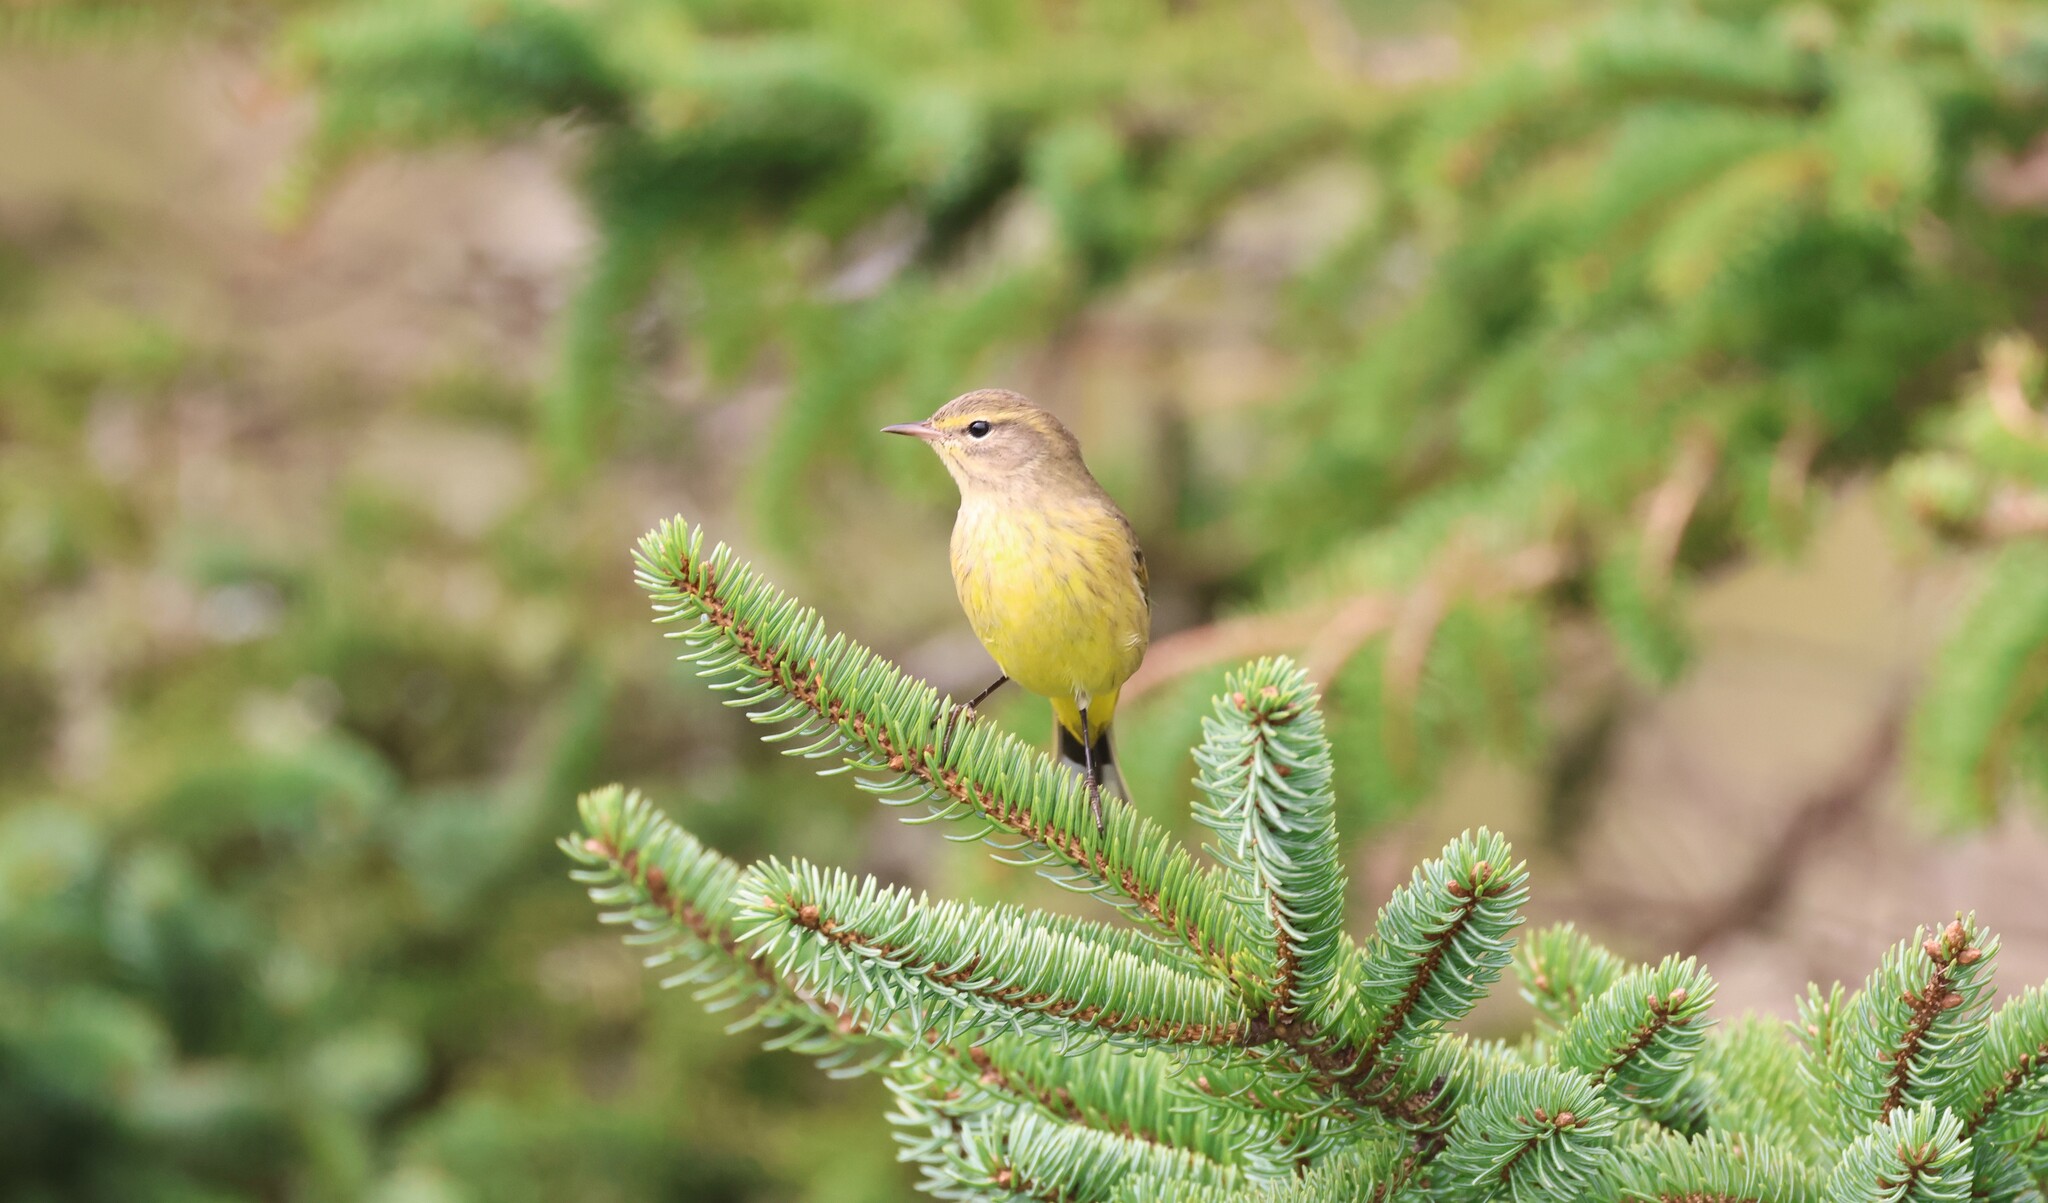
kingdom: Animalia
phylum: Chordata
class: Aves
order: Passeriformes
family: Parulidae
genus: Setophaga
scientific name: Setophaga palmarum
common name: Palm warbler
